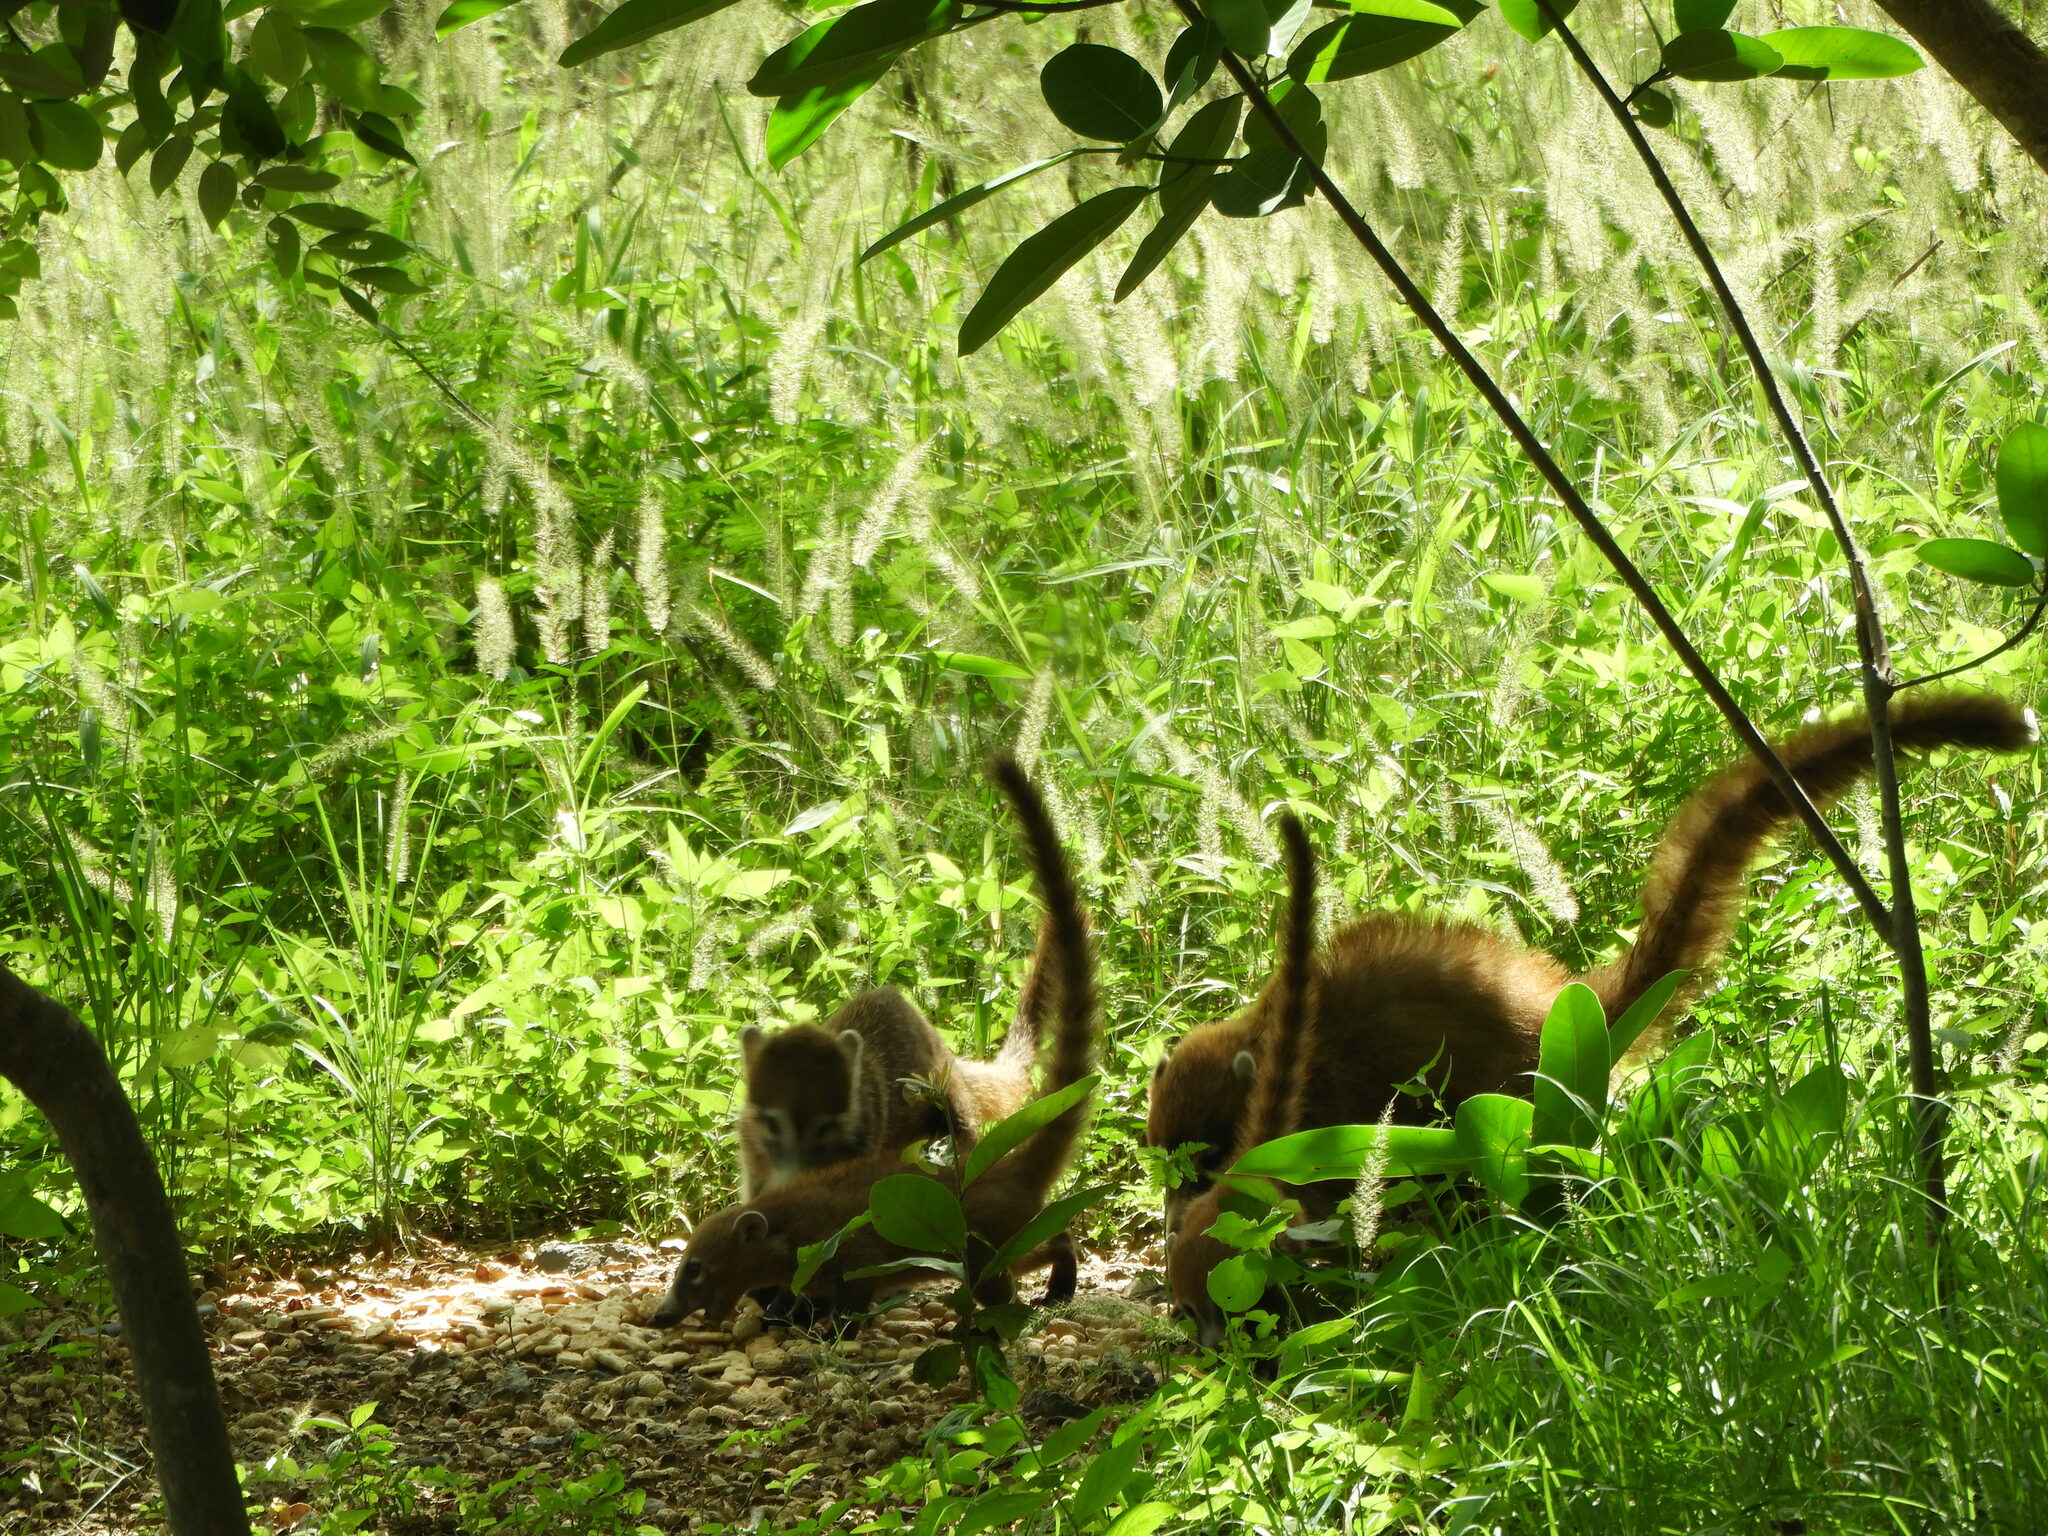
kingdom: Animalia
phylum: Chordata
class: Mammalia
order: Carnivora
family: Procyonidae
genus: Nasua
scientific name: Nasua narica
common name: White-nosed coati
